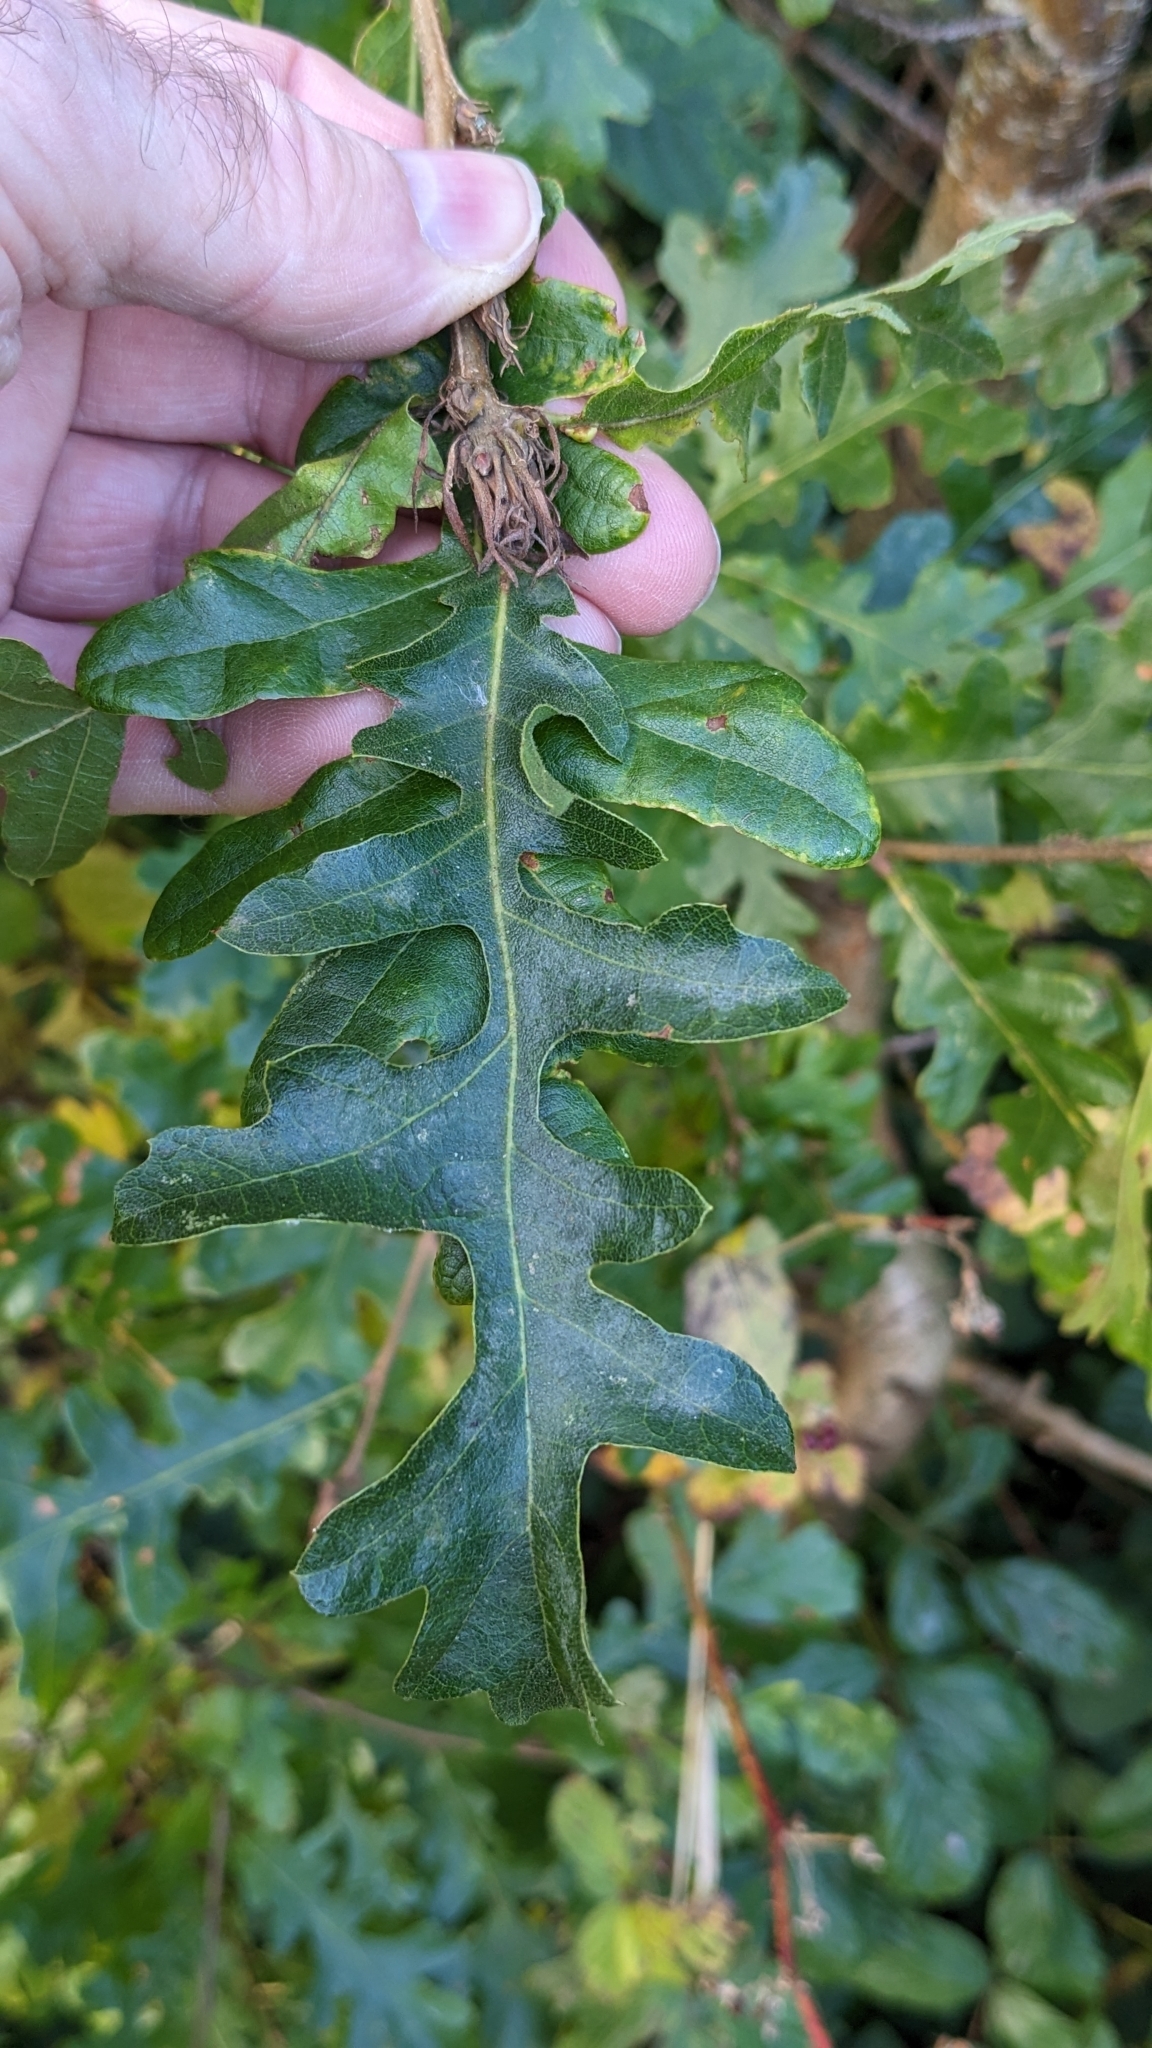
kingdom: Plantae
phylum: Tracheophyta
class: Magnoliopsida
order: Fagales
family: Fagaceae
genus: Quercus
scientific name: Quercus cerris
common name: Turkey oak
